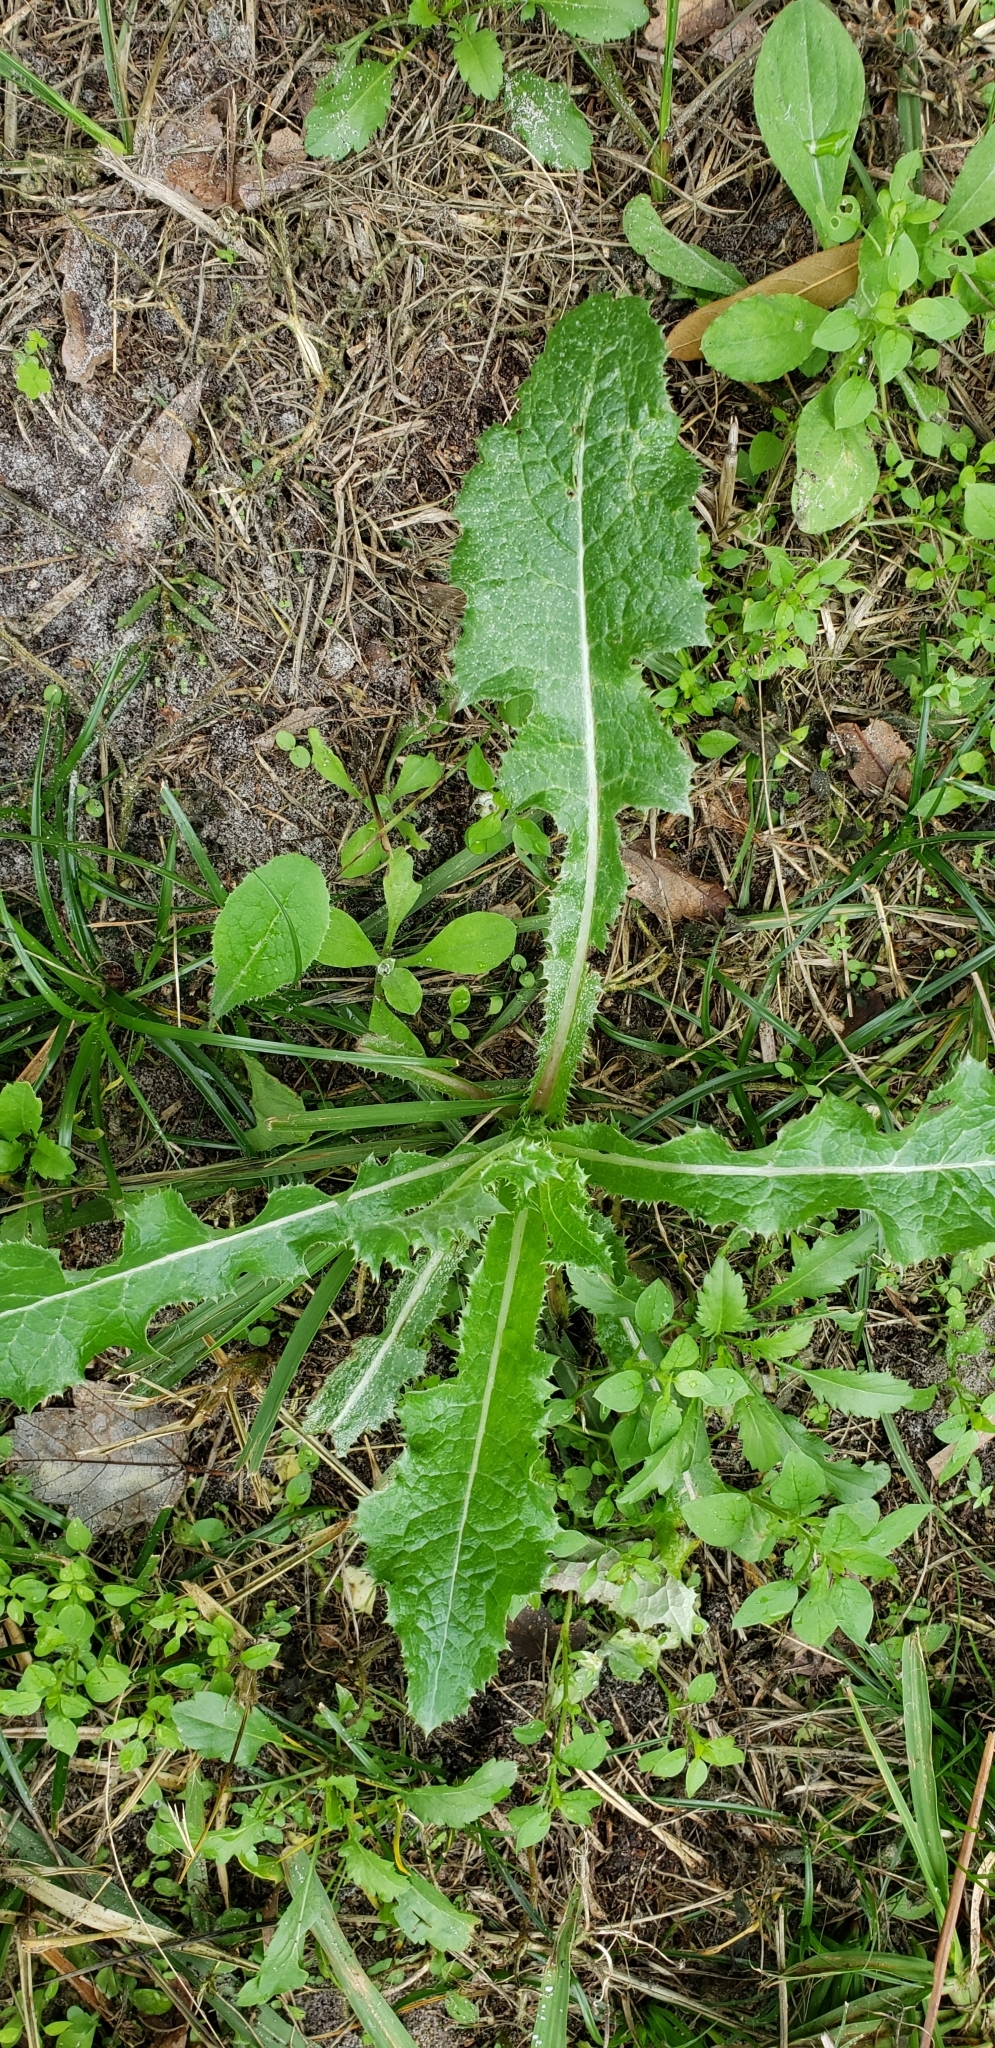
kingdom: Plantae
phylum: Tracheophyta
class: Magnoliopsida
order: Asterales
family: Asteraceae
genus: Sonchus
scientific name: Sonchus asper
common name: Prickly sow-thistle
